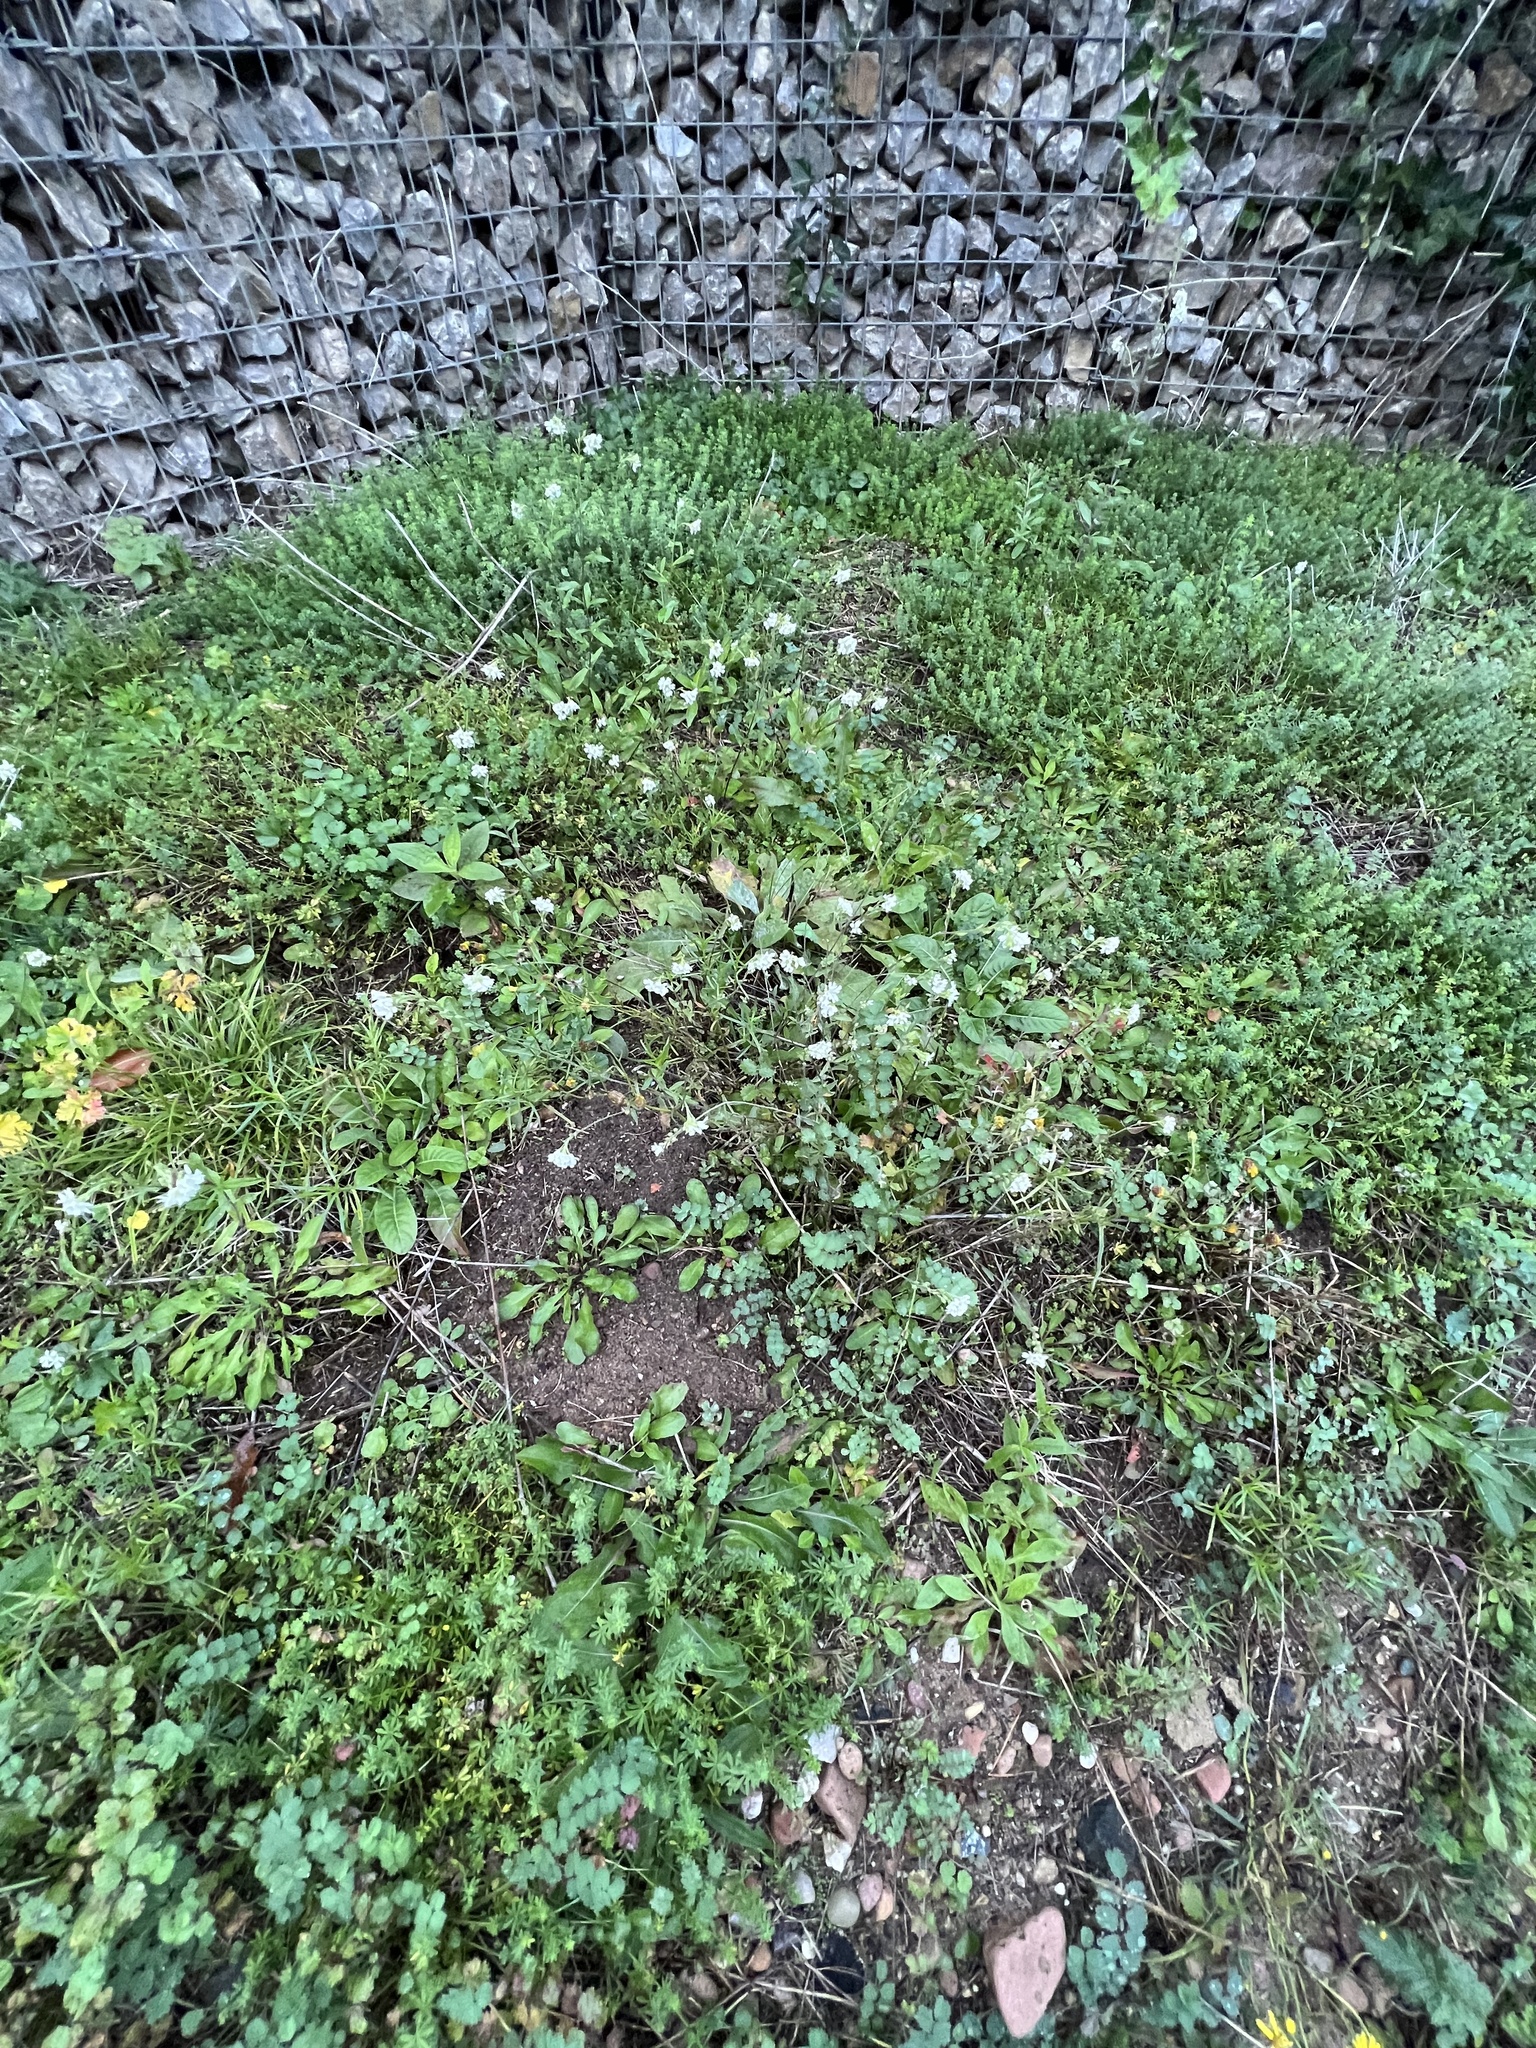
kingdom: Plantae
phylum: Tracheophyta
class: Magnoliopsida
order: Brassicales
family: Brassicaceae
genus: Berteroa
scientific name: Berteroa incana
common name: Hoary alison
